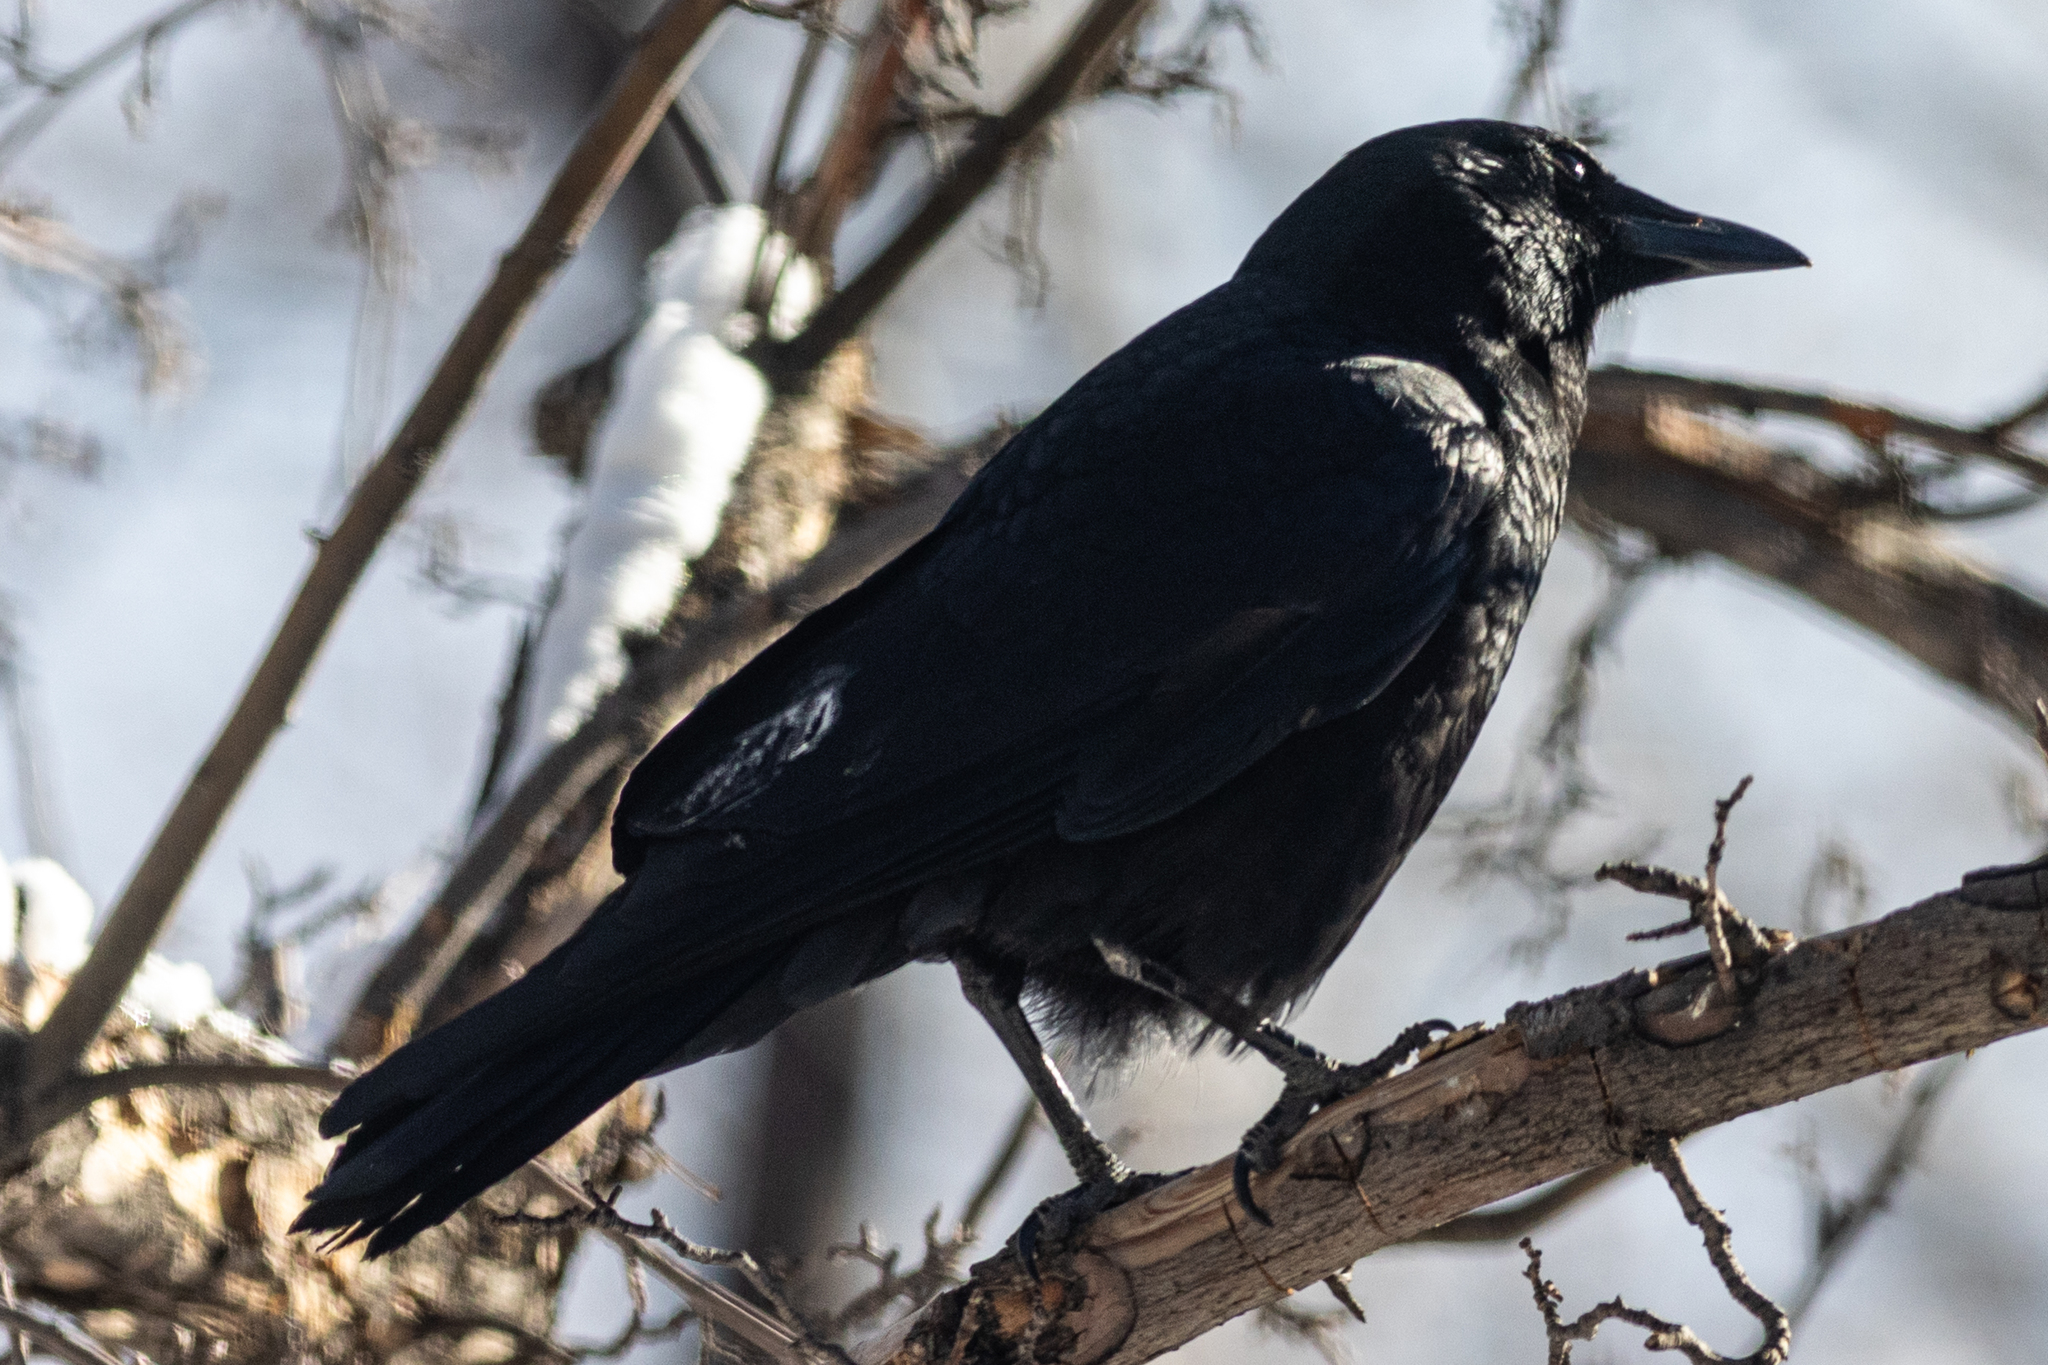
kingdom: Animalia
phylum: Chordata
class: Aves
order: Passeriformes
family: Corvidae
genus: Corvus
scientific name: Corvus brachyrhynchos
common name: American crow
